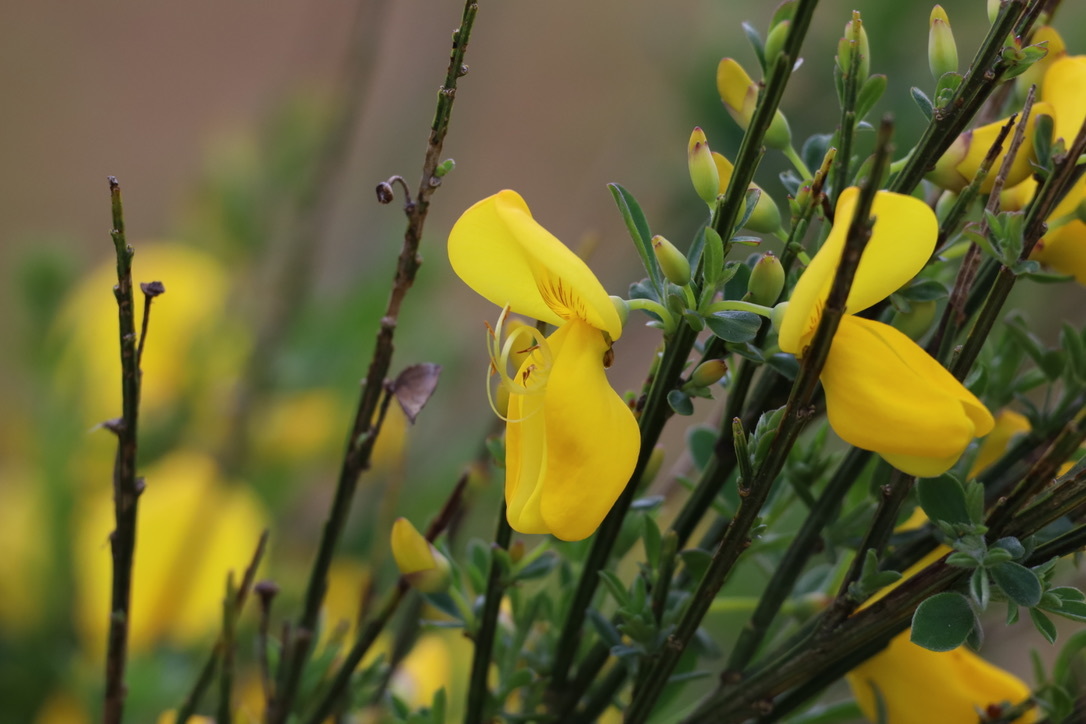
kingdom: Plantae
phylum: Tracheophyta
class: Magnoliopsida
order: Fabales
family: Fabaceae
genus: Cytisus
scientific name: Cytisus scoparius
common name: Scotch broom
